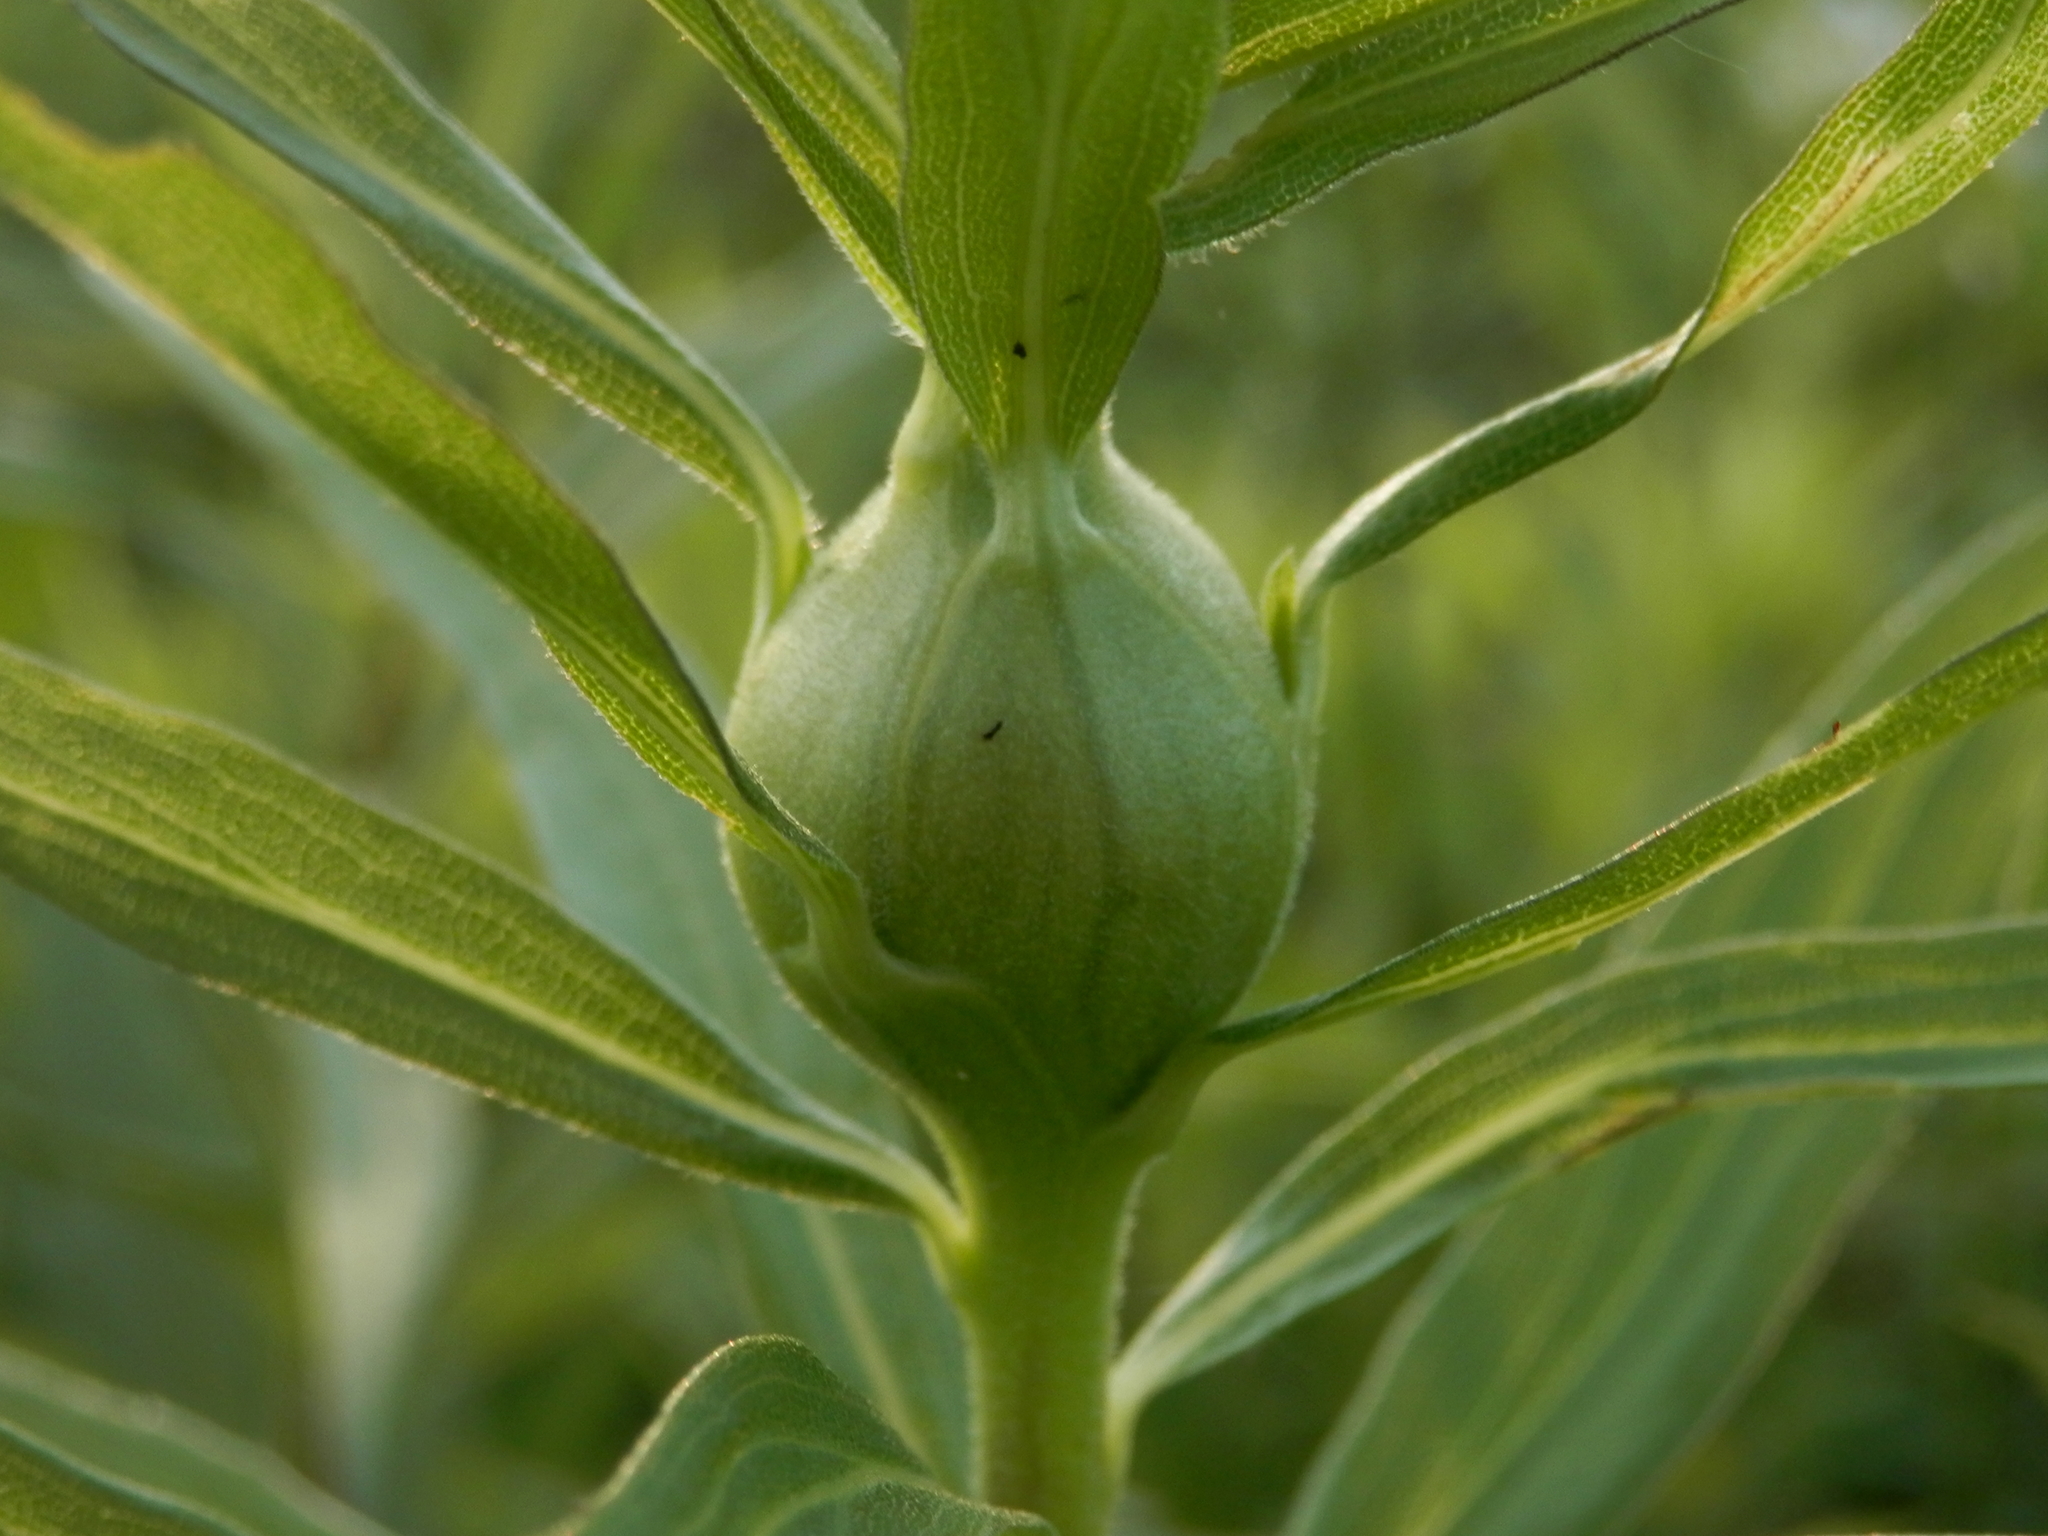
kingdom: Animalia
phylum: Arthropoda
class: Insecta
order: Diptera
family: Tephritidae
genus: Eurosta
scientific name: Eurosta solidaginis
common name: Goldenrod gall fly
